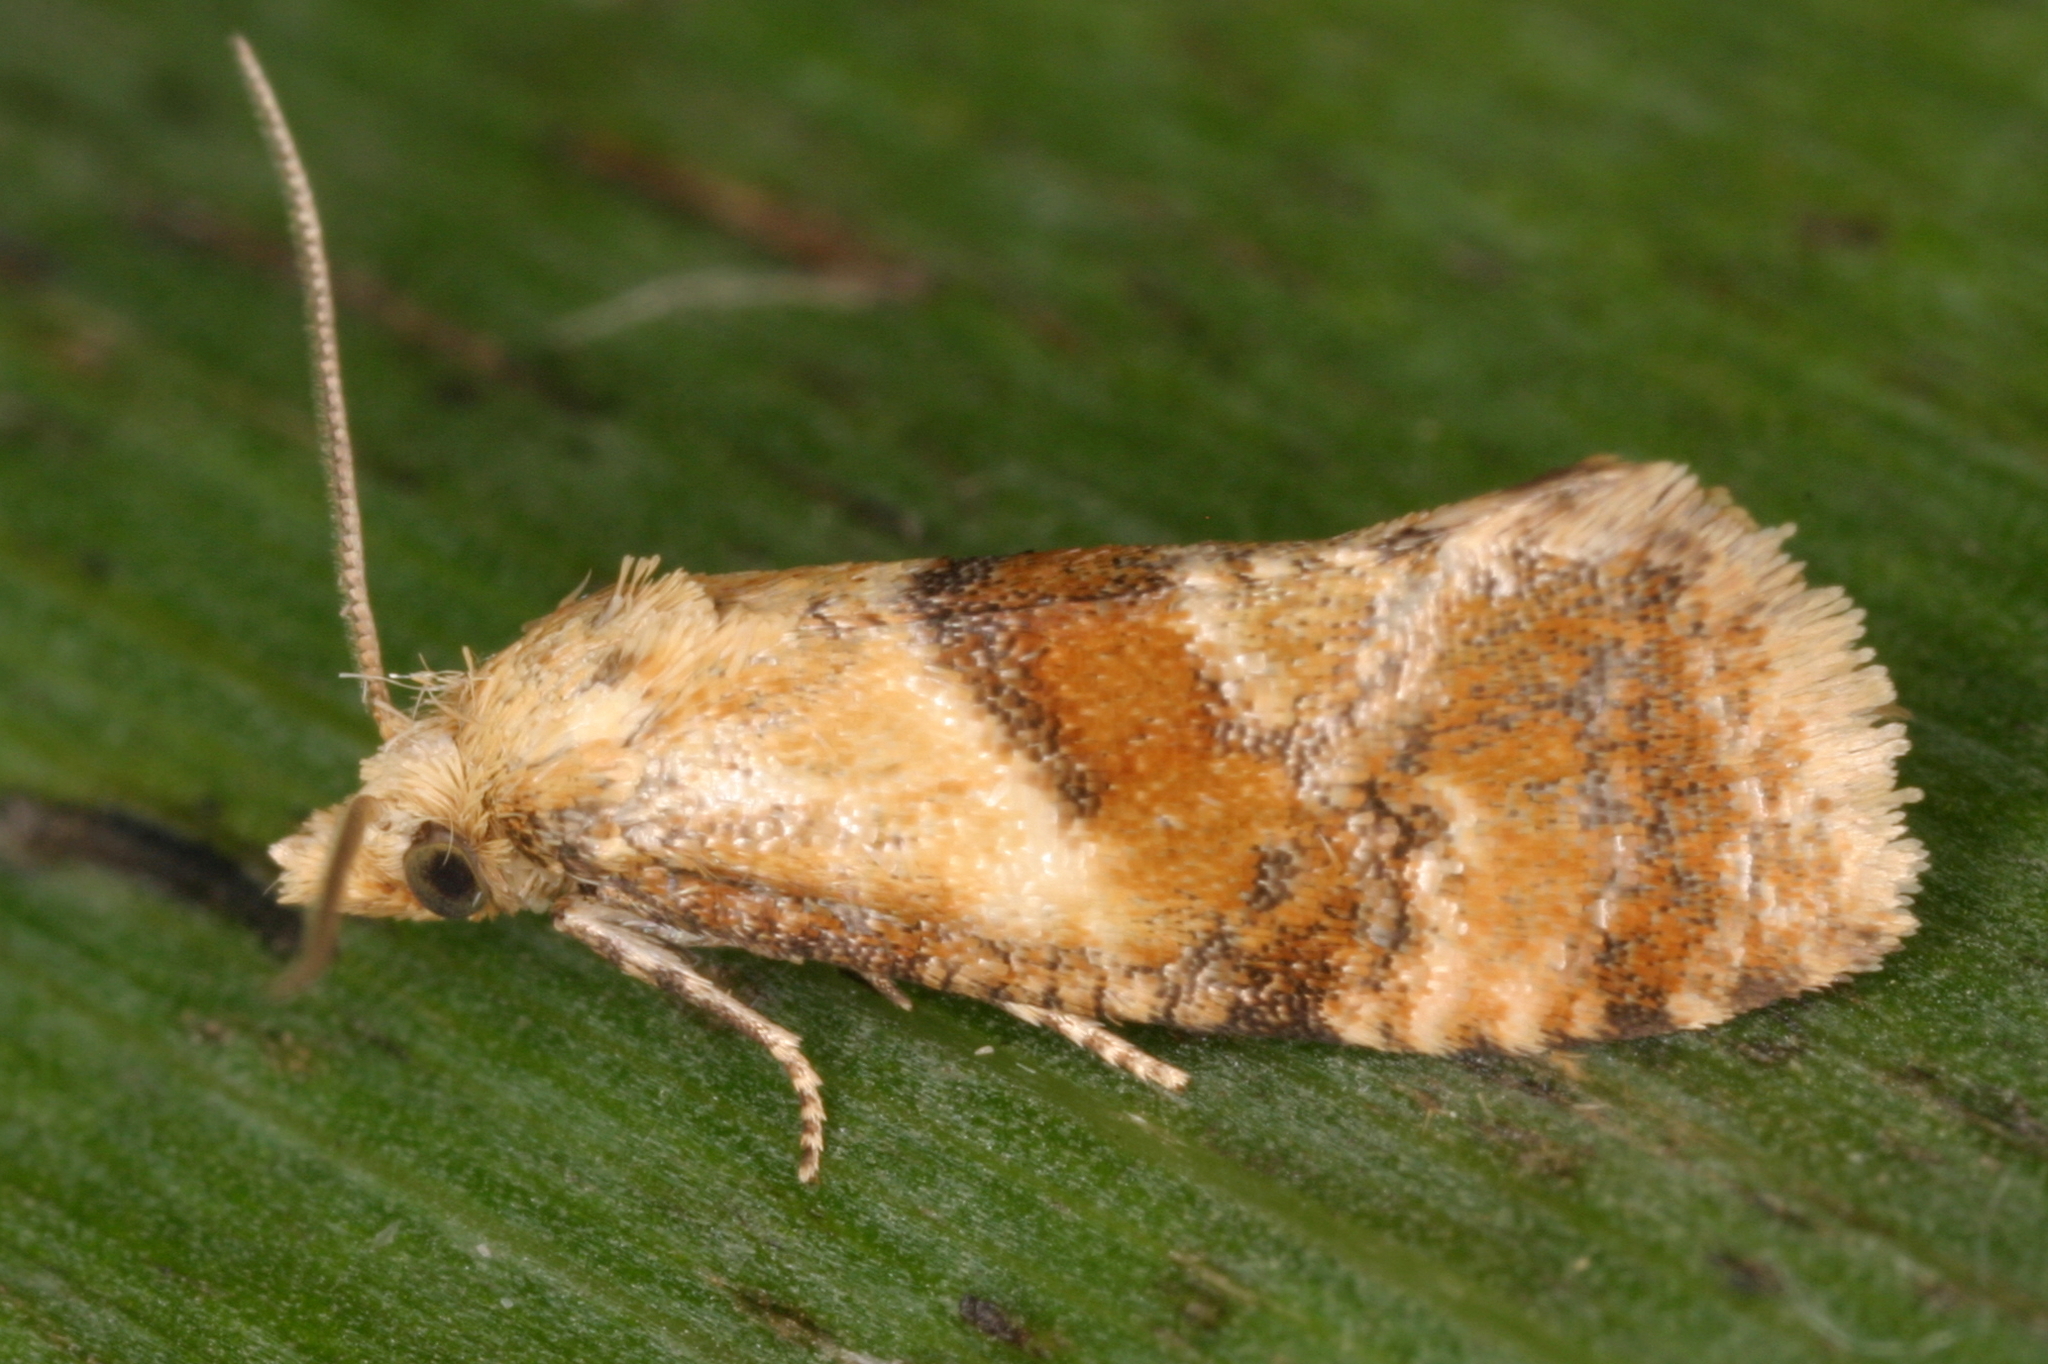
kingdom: Animalia
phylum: Arthropoda
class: Insecta
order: Lepidoptera
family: Tortricidae
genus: Cochylidia
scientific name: Cochylidia rupicola
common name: Hemp-agrimony conch
